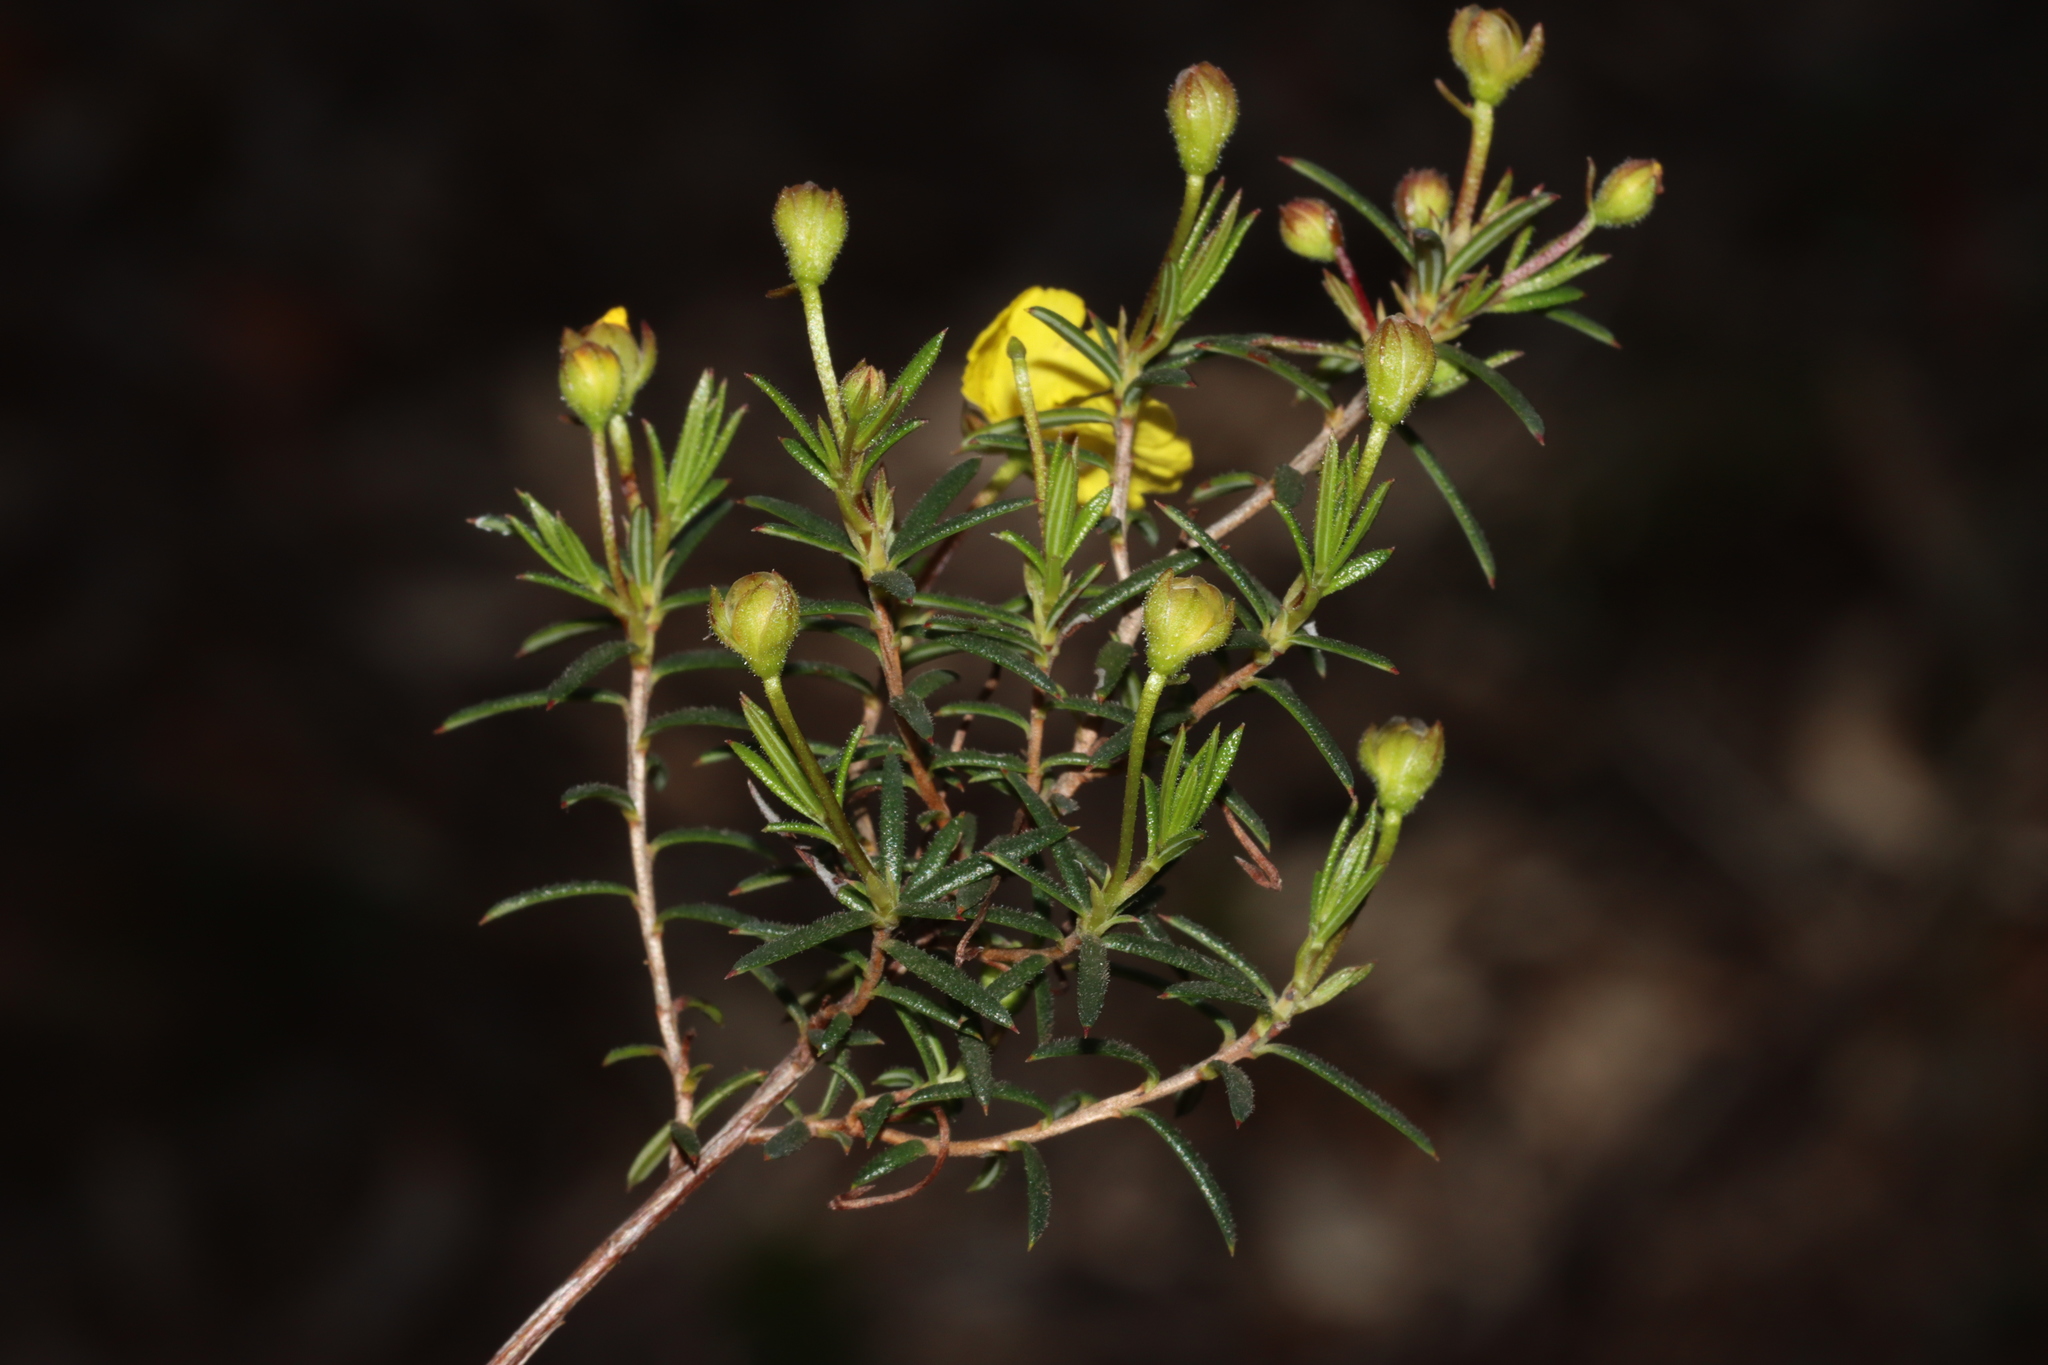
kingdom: Plantae
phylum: Tracheophyta
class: Magnoliopsida
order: Dilleniales
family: Dilleniaceae
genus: Hibbertia
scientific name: Hibbertia acerosa
